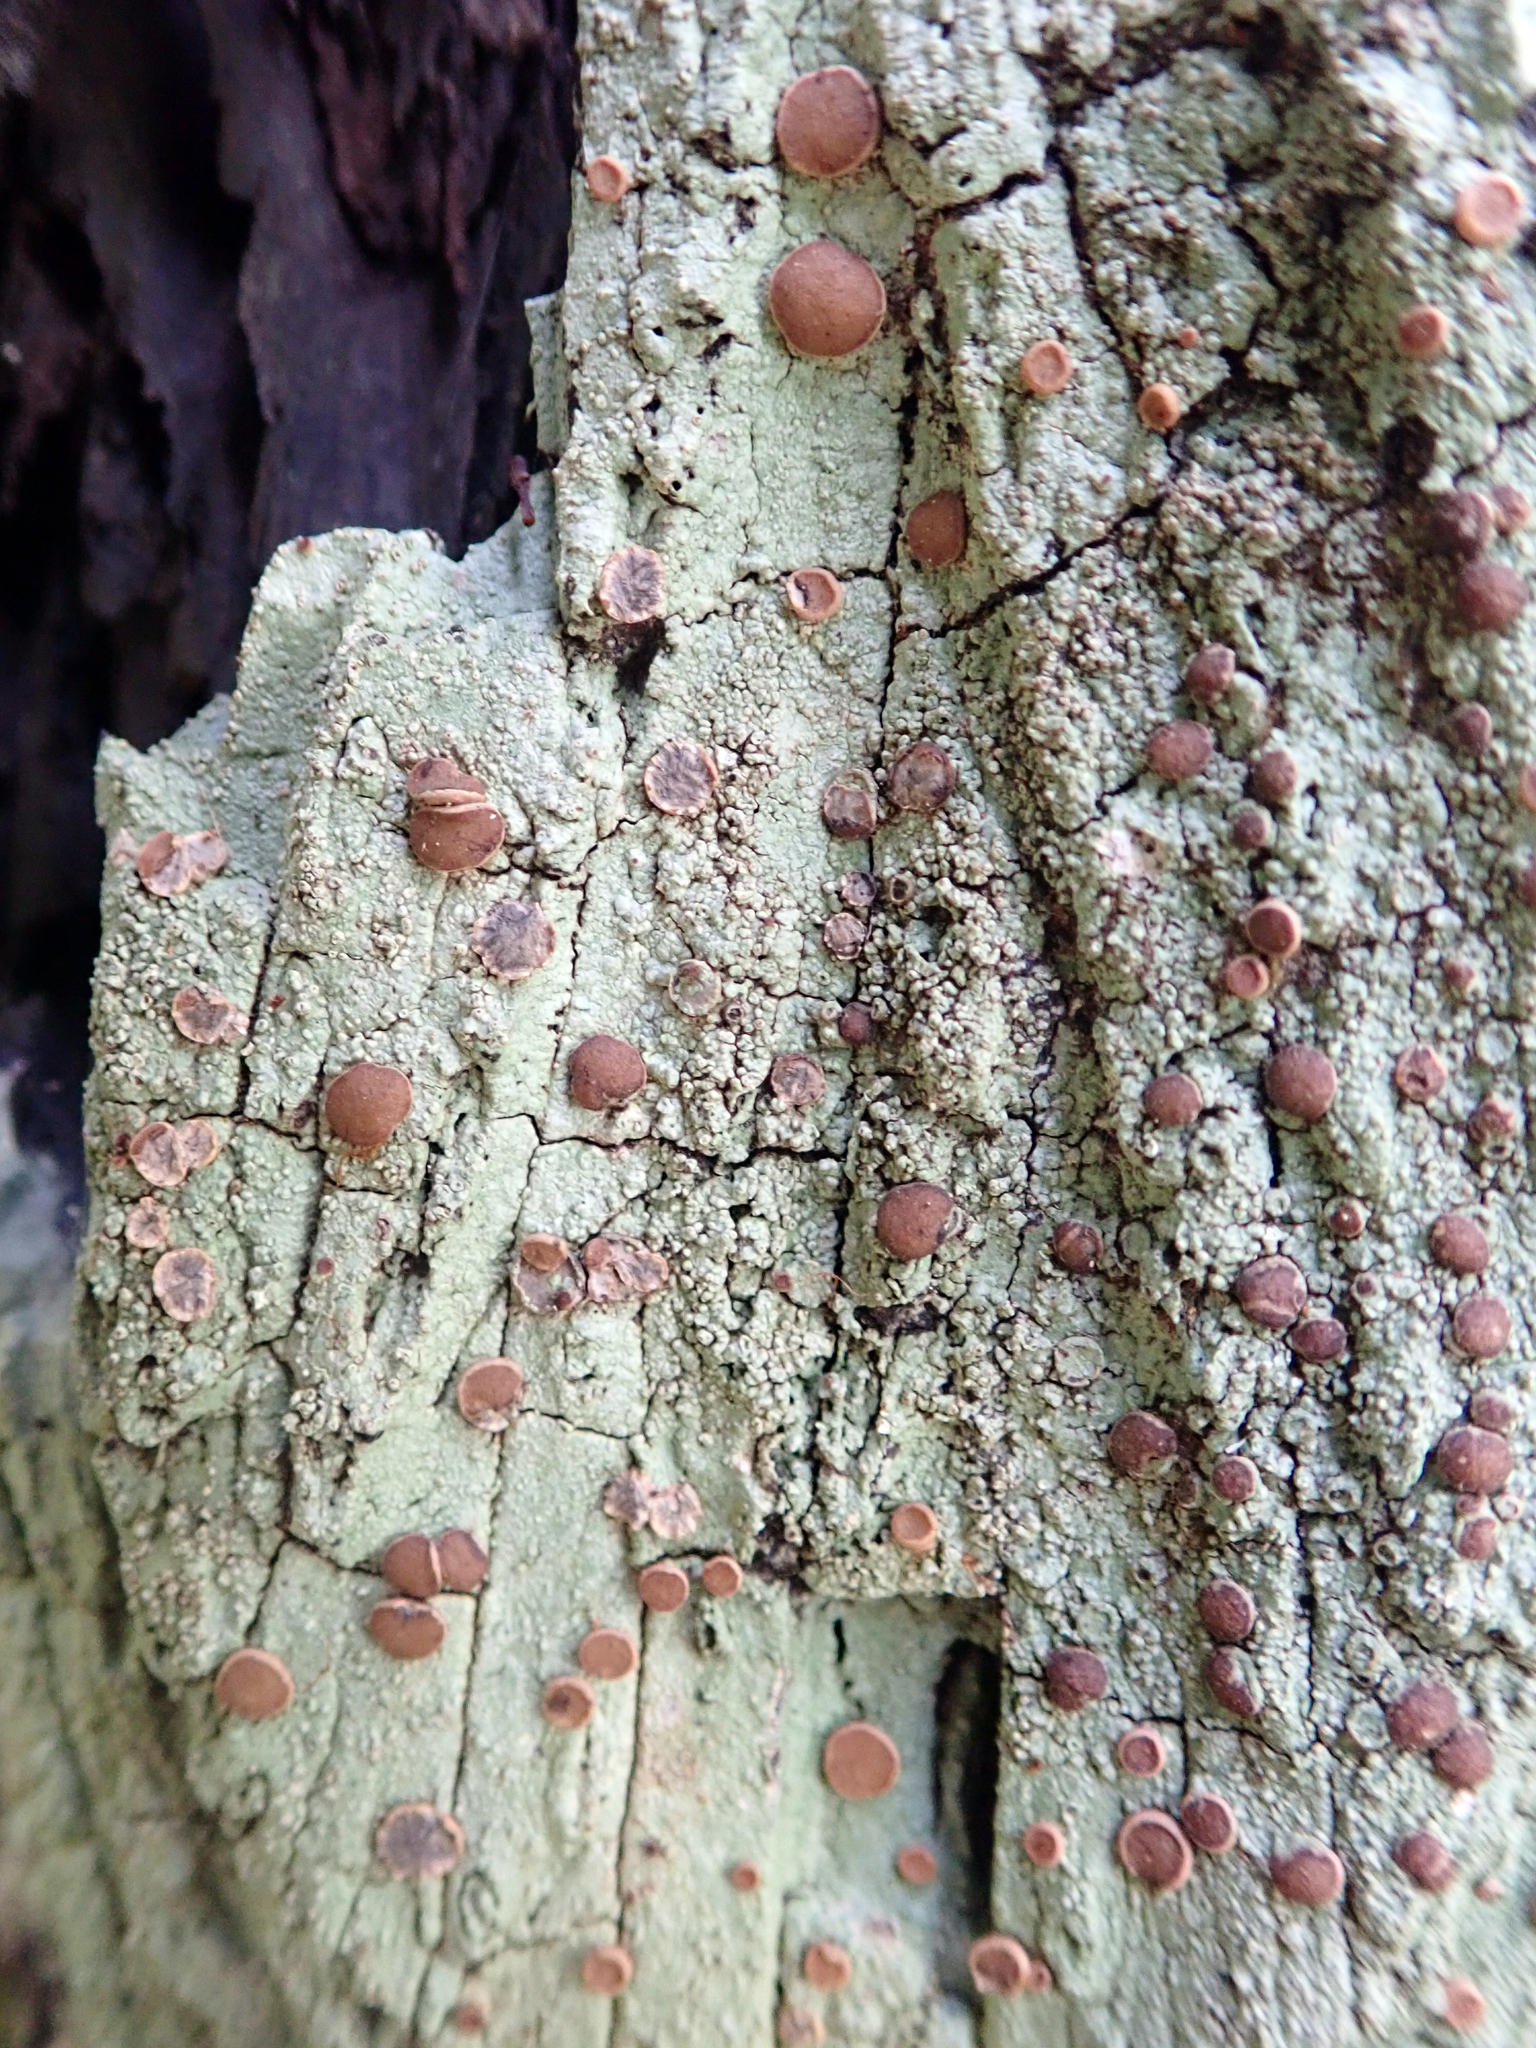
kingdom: Fungi
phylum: Ascomycota
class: Lecanoromycetes
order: Teloschistales
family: Megalosporaceae
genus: Megalospora
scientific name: Megalospora knightii
